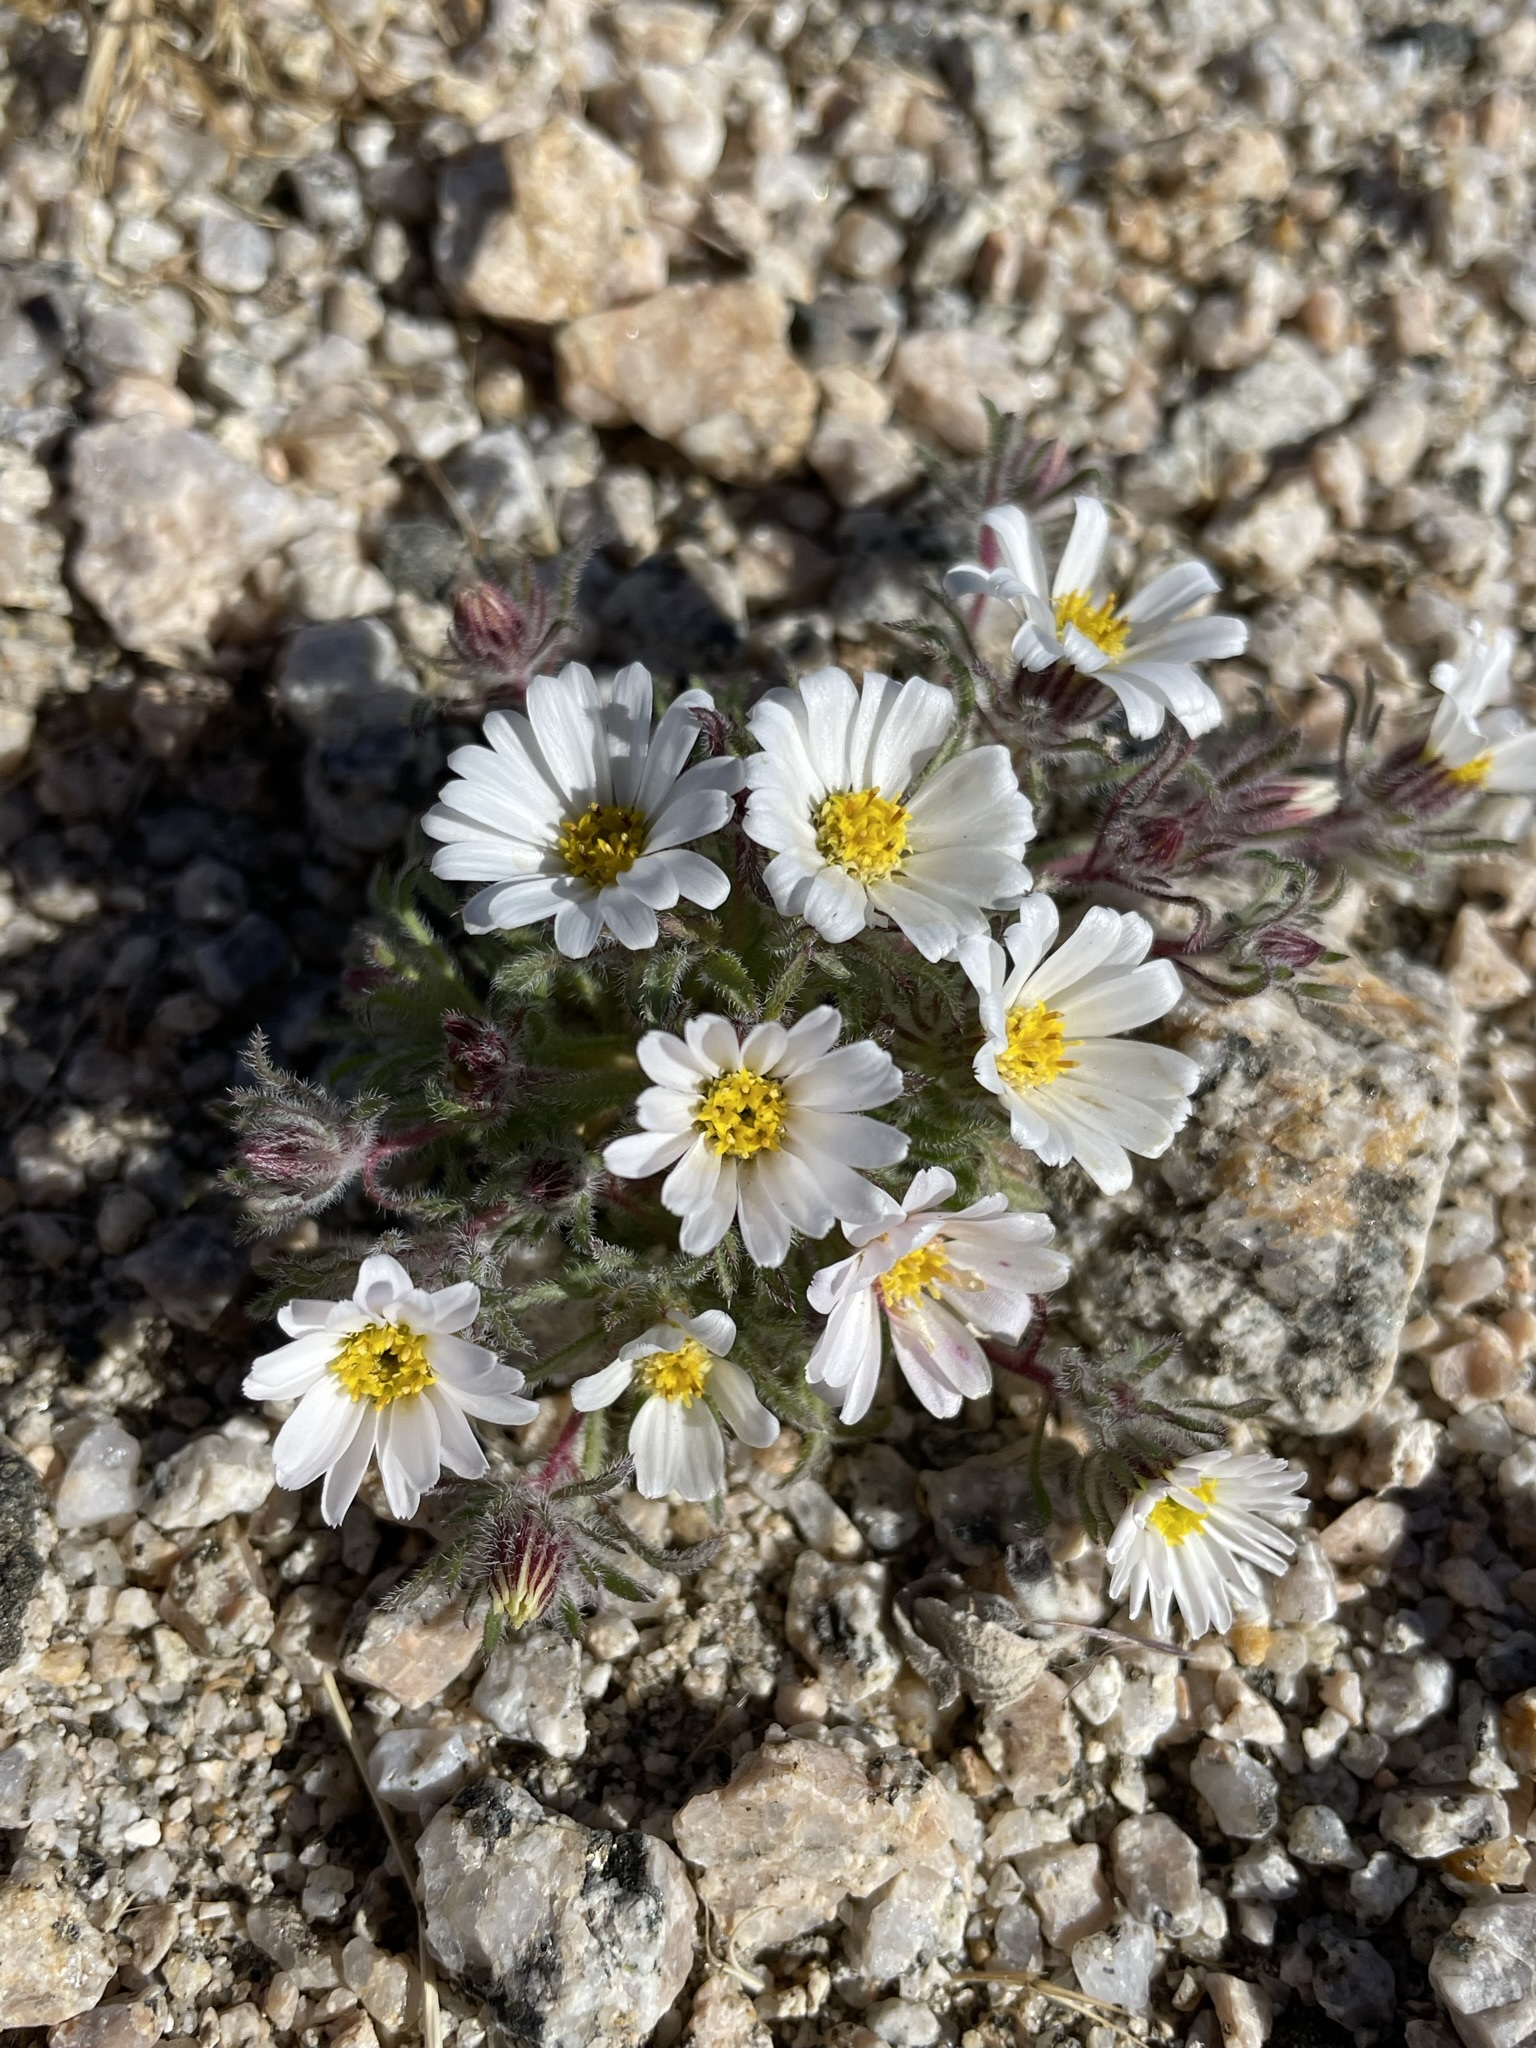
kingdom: Plantae
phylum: Tracheophyta
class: Magnoliopsida
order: Asterales
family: Asteraceae
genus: Monoptilon
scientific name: Monoptilon bellioides
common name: Bristly desertstar
